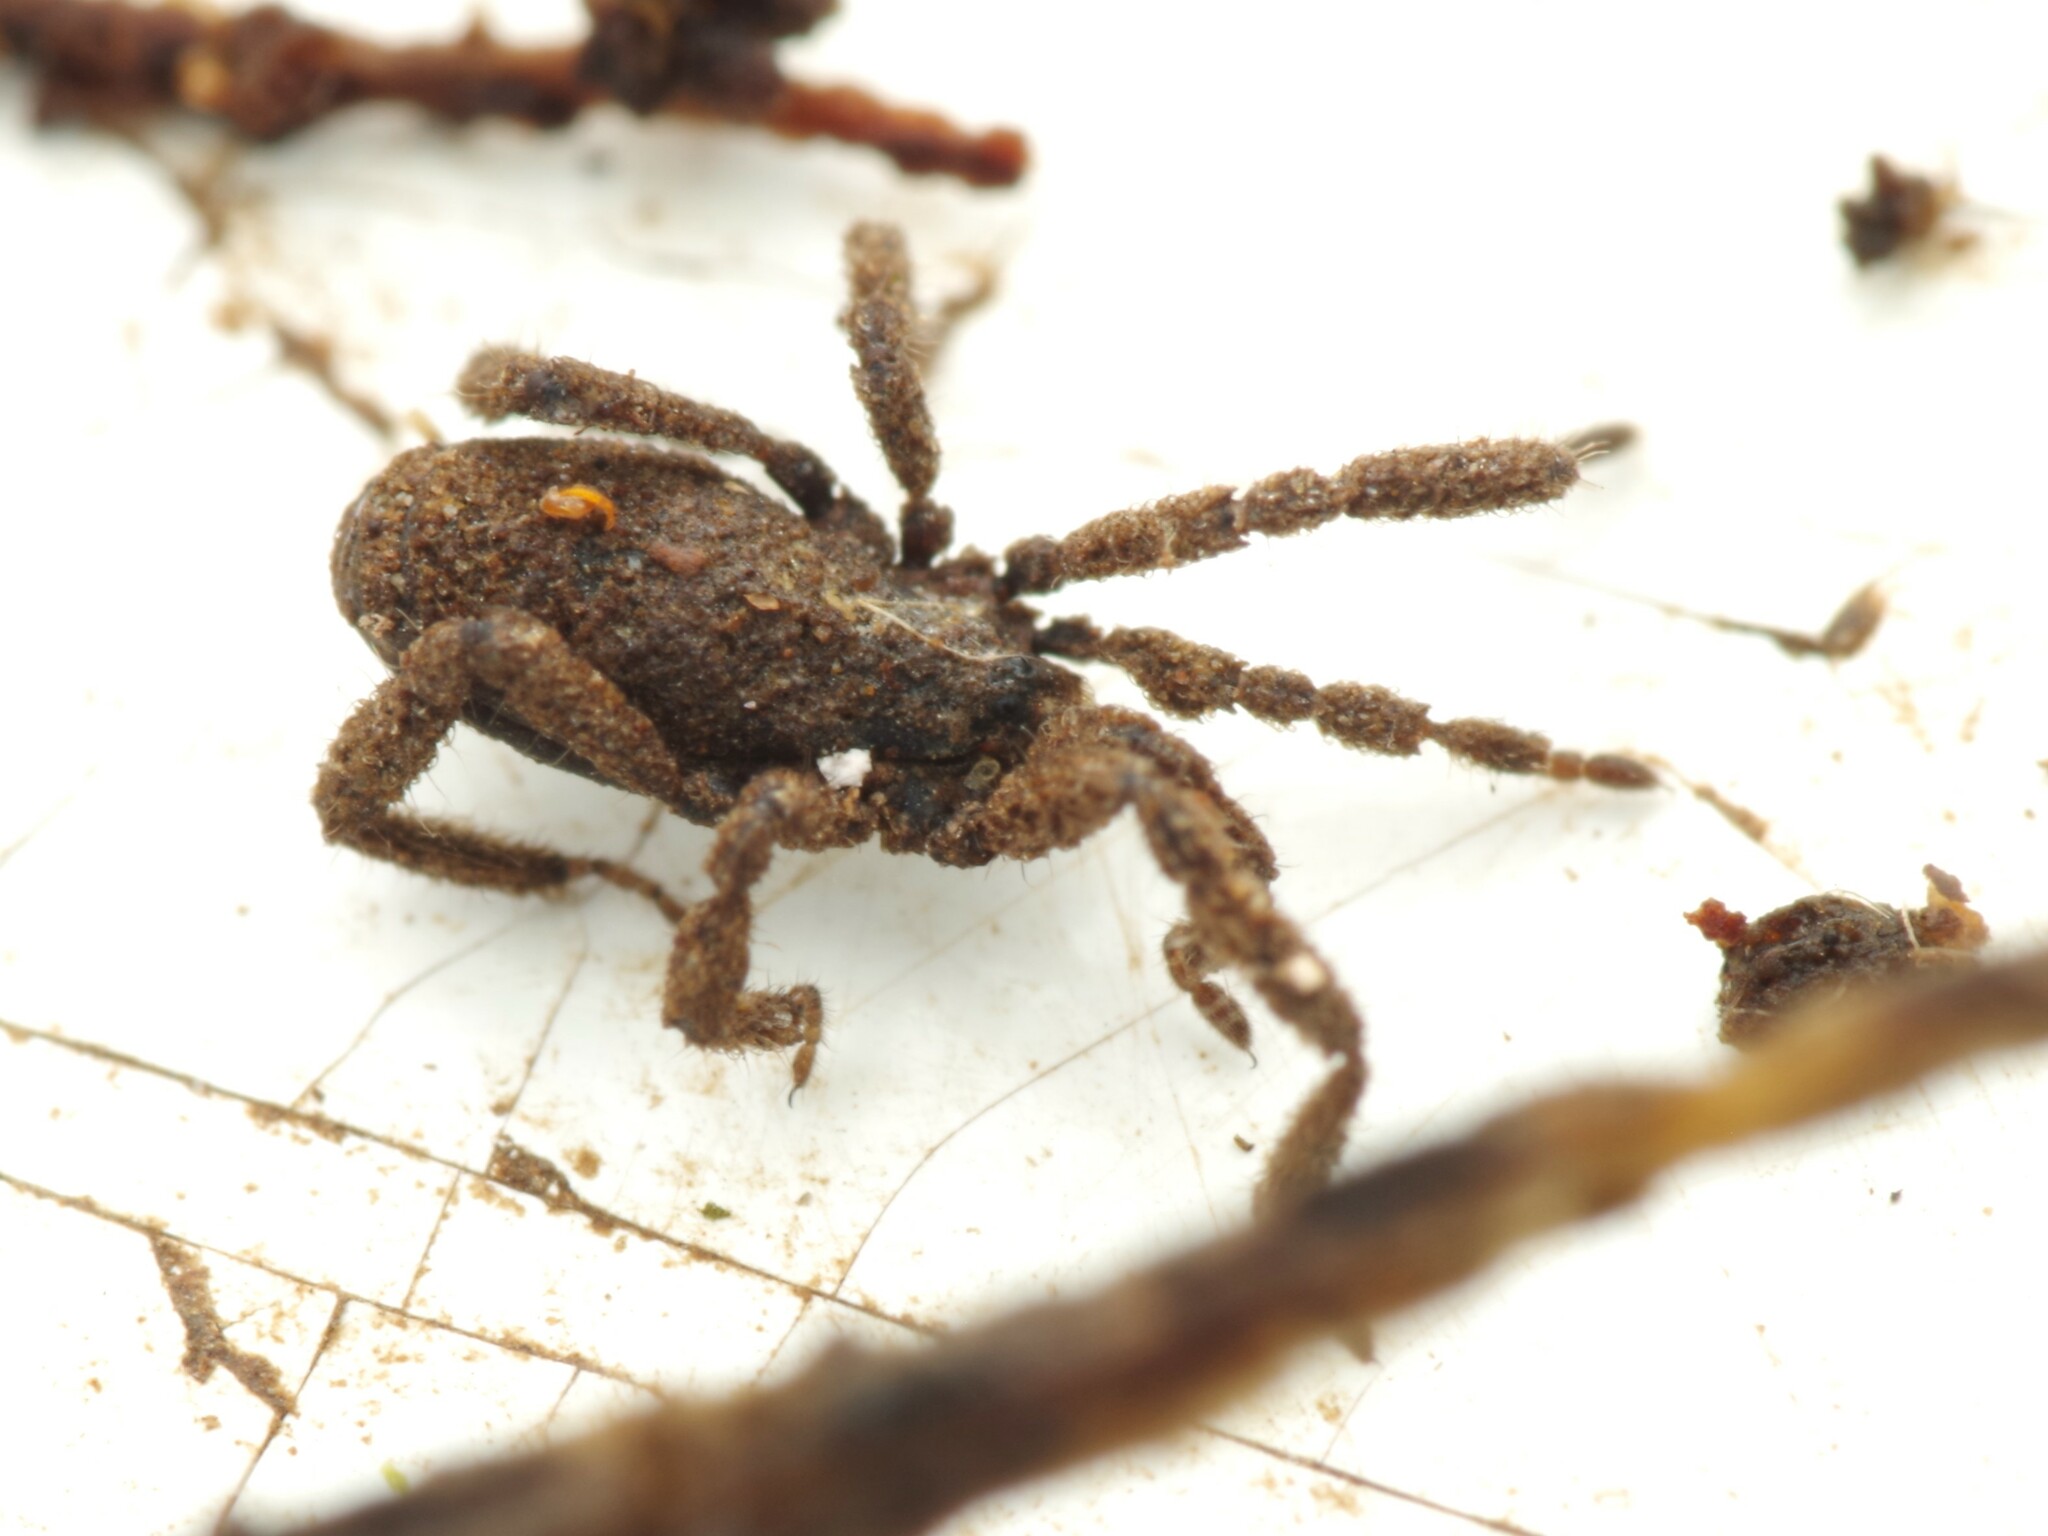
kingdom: Animalia
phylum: Arthropoda
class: Arachnida
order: Opiliones
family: Trogulidae
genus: Anelasmocephalus
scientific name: Anelasmocephalus cambridgei
